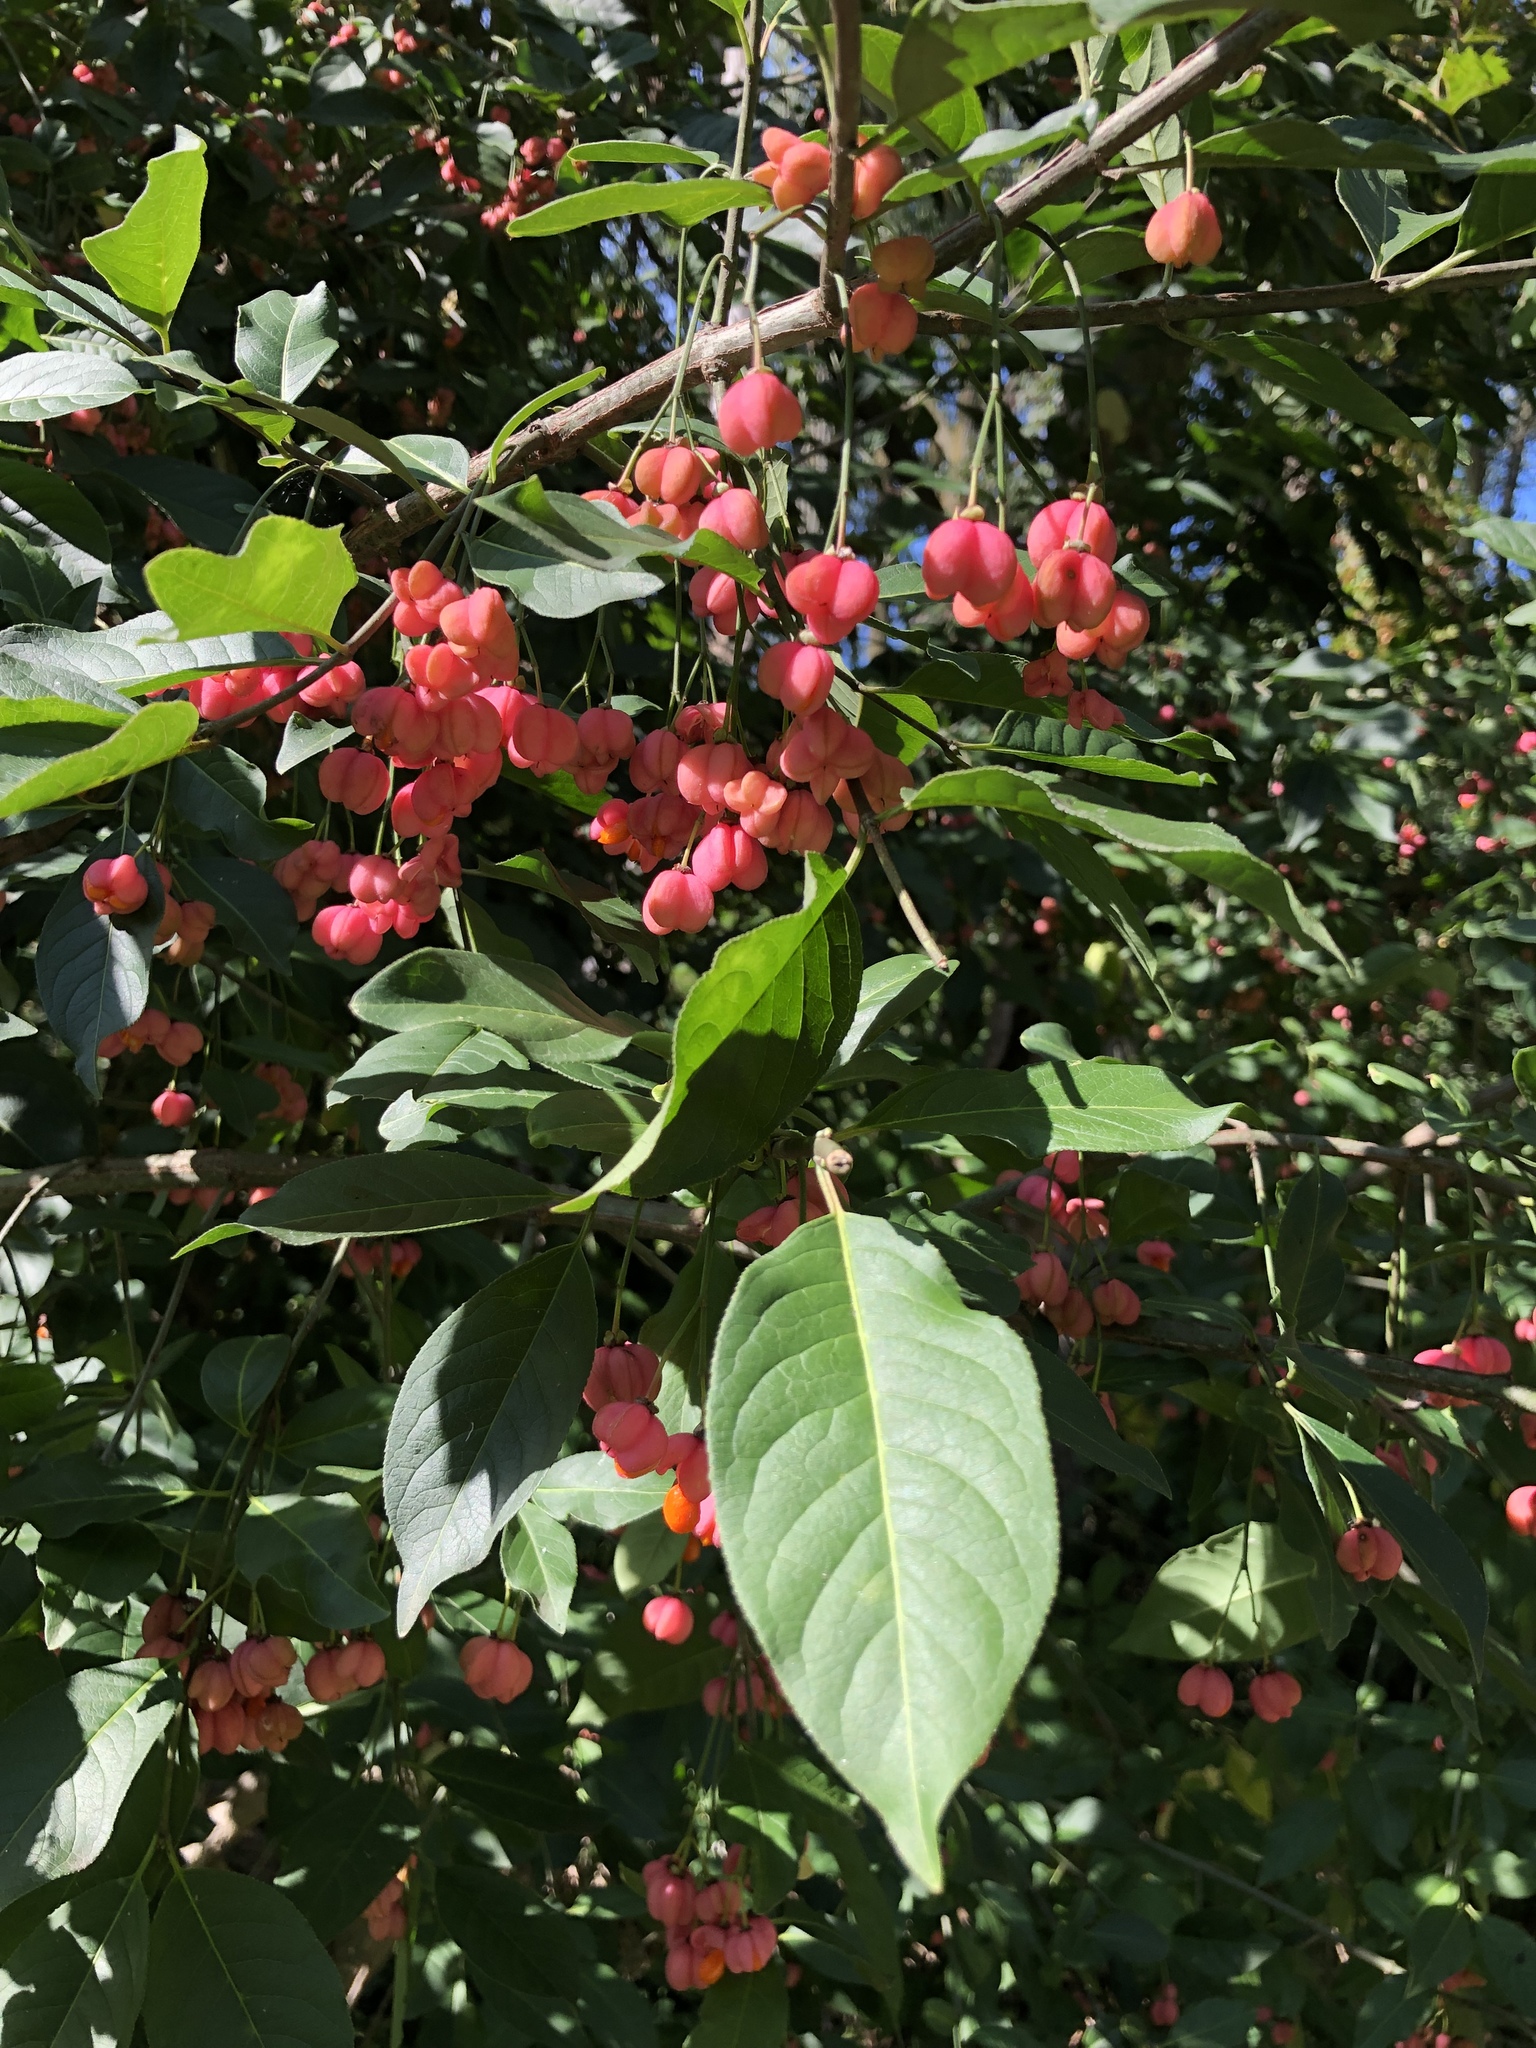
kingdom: Plantae
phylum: Tracheophyta
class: Magnoliopsida
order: Celastrales
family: Celastraceae
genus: Euonymus
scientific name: Euonymus europaeus
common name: Spindle
